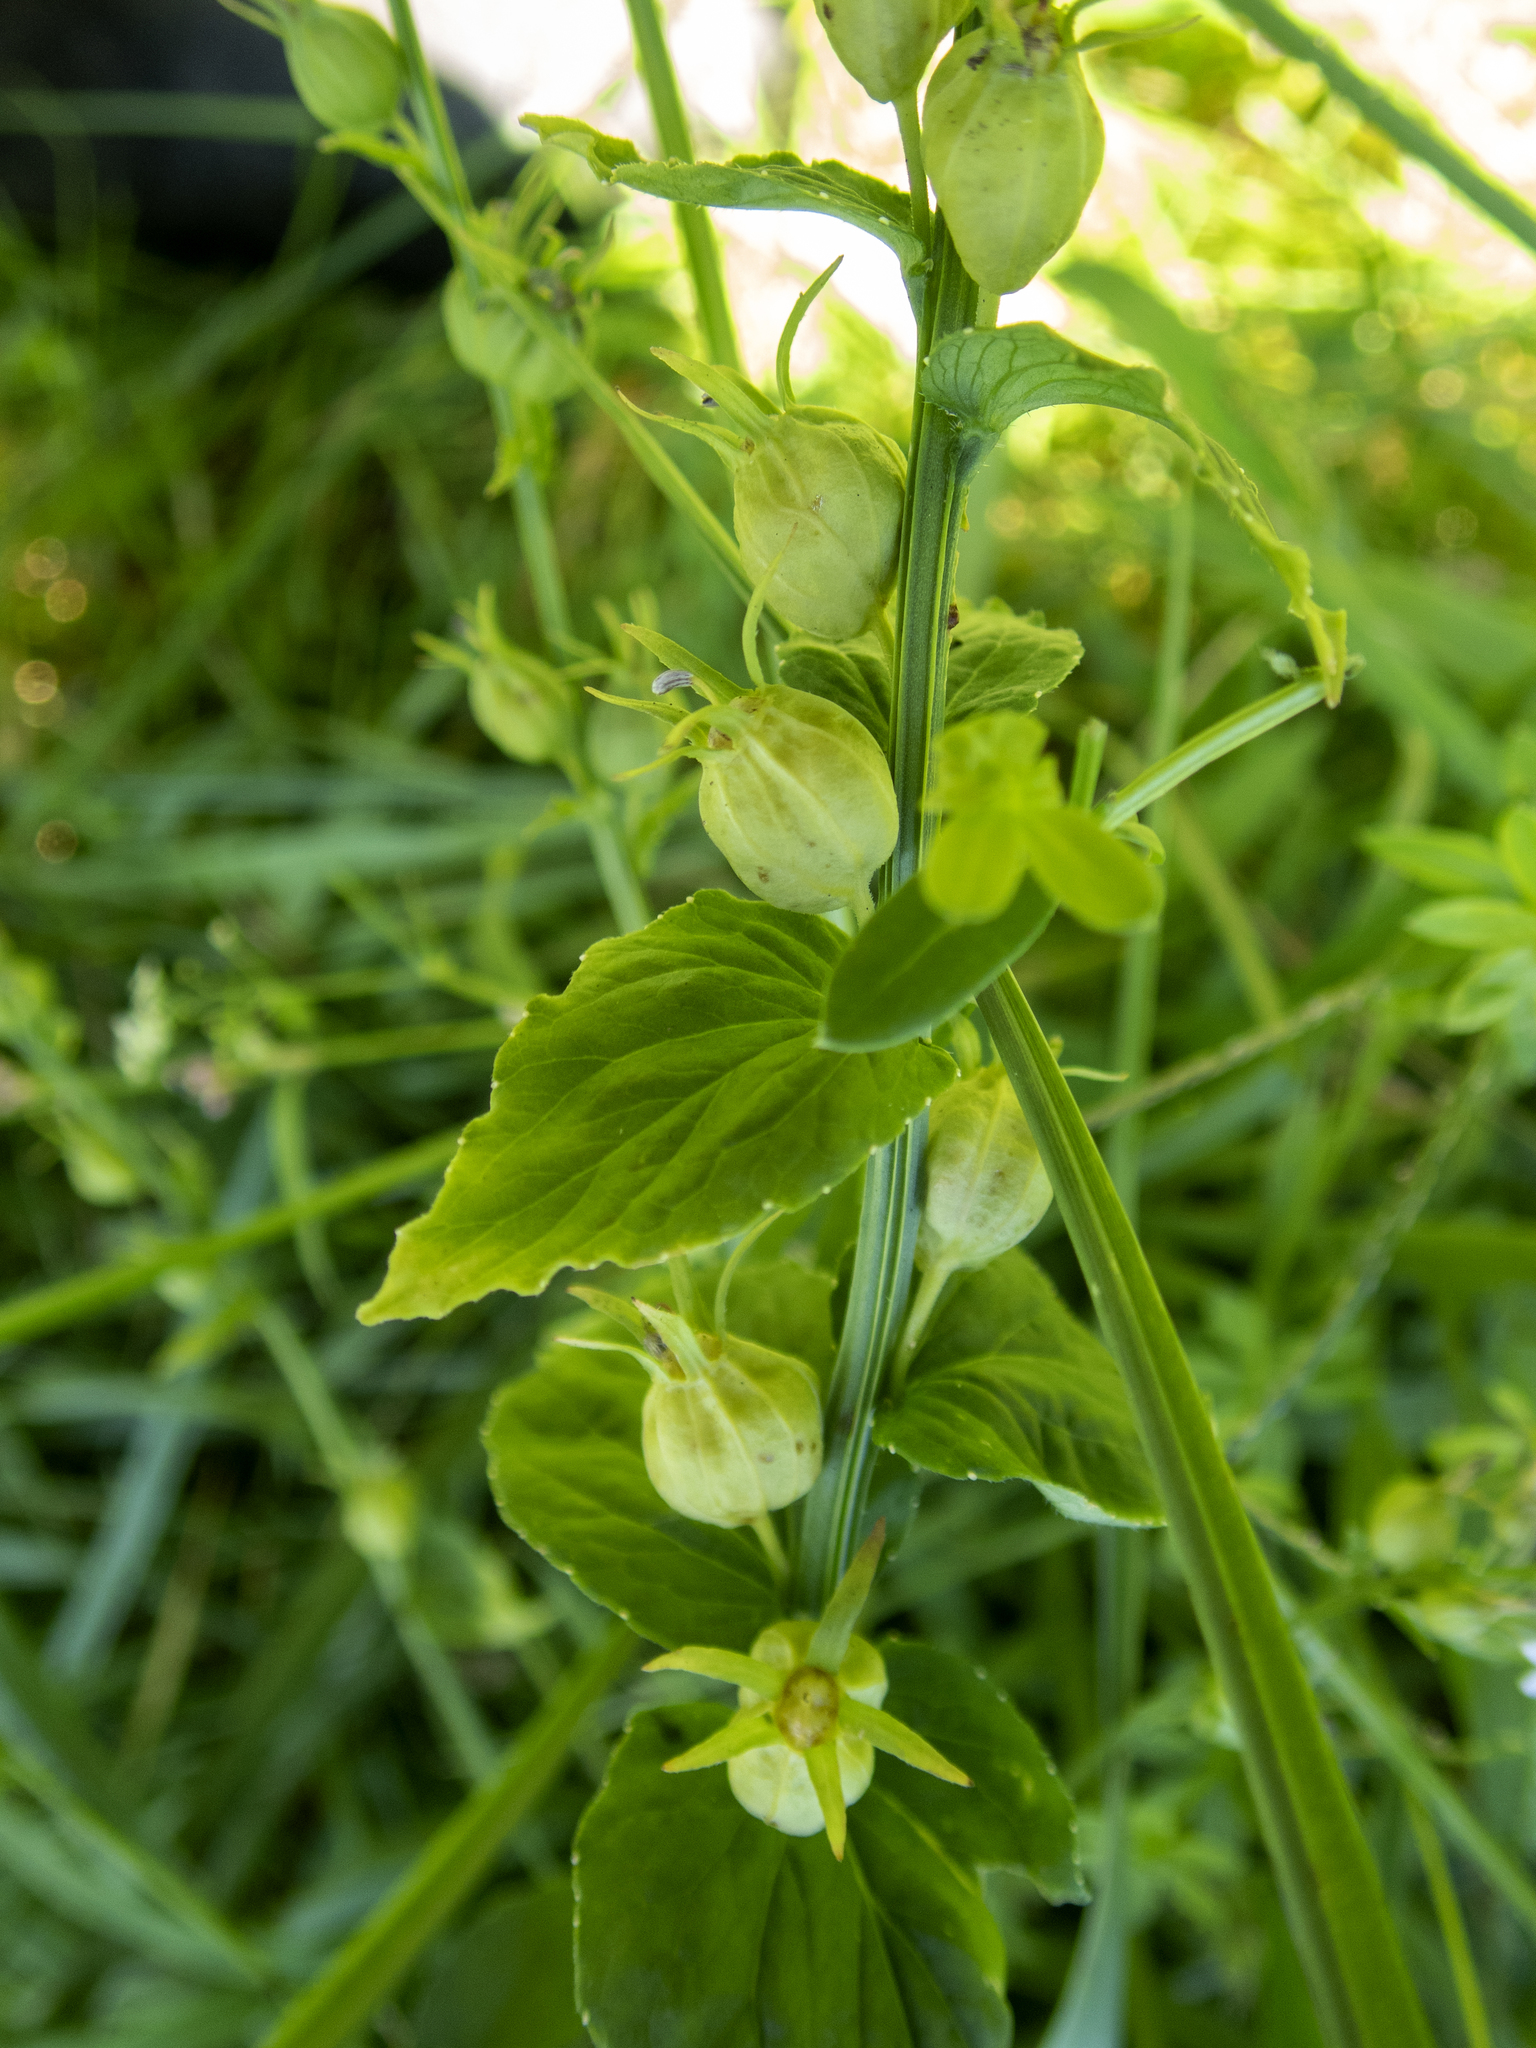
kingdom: Plantae
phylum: Tracheophyta
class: Magnoliopsida
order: Asterales
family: Campanulaceae
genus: Lobelia
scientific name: Lobelia inflata
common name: Indian tobacco
